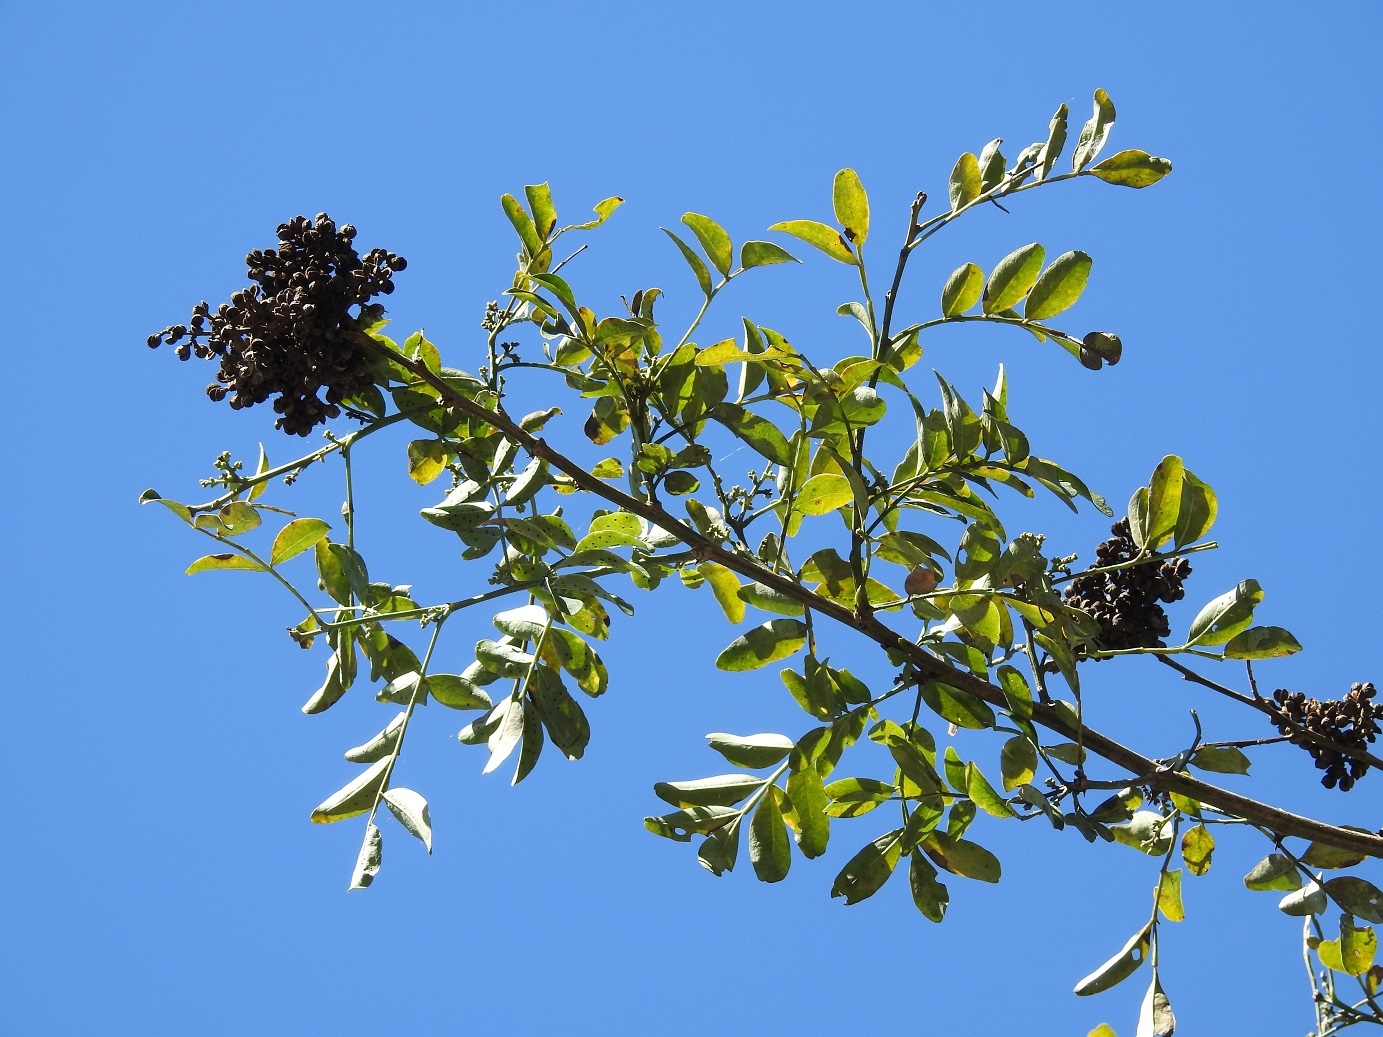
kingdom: Plantae
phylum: Tracheophyta
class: Magnoliopsida
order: Sapindales
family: Rutaceae
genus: Zanthoxylum
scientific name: Zanthoxylum quassiifolium
